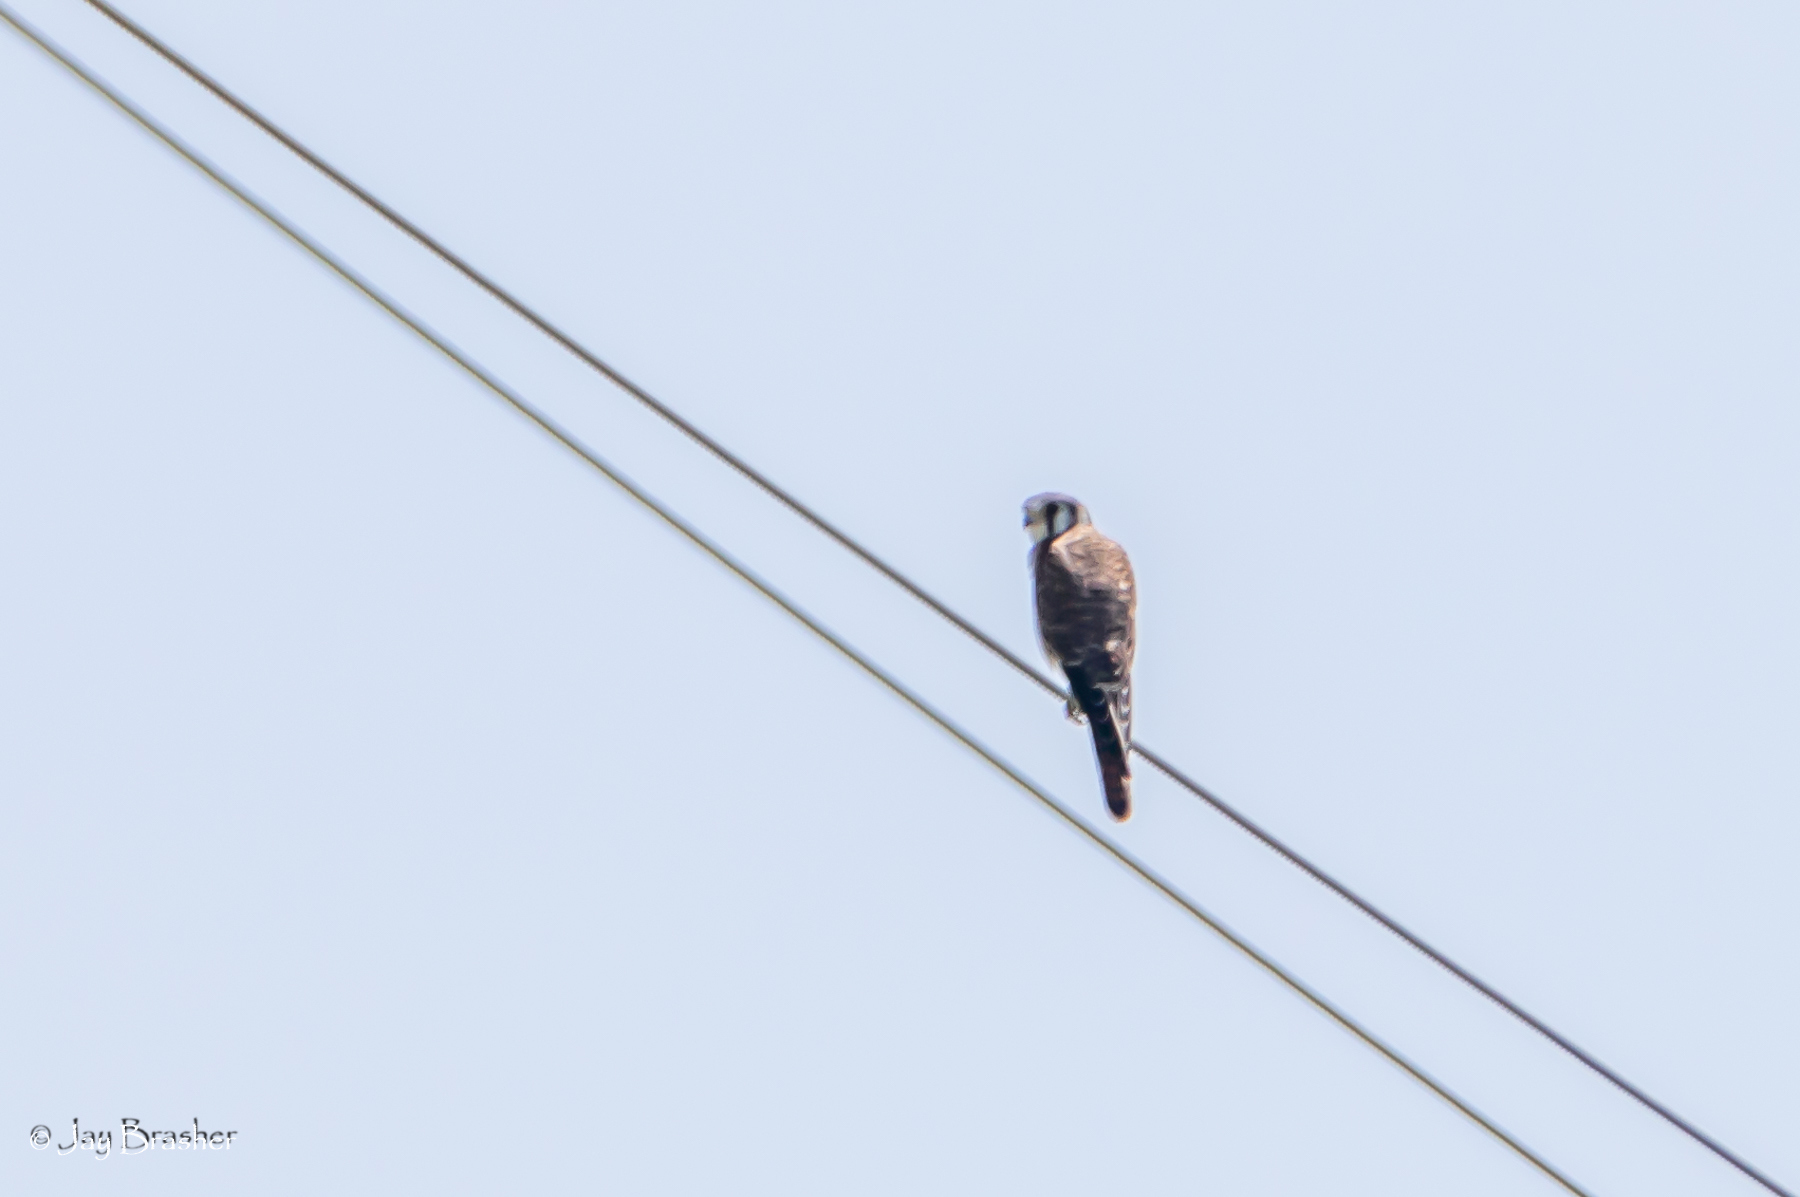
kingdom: Animalia
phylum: Chordata
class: Aves
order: Falconiformes
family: Falconidae
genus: Falco
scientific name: Falco sparverius
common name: American kestrel
